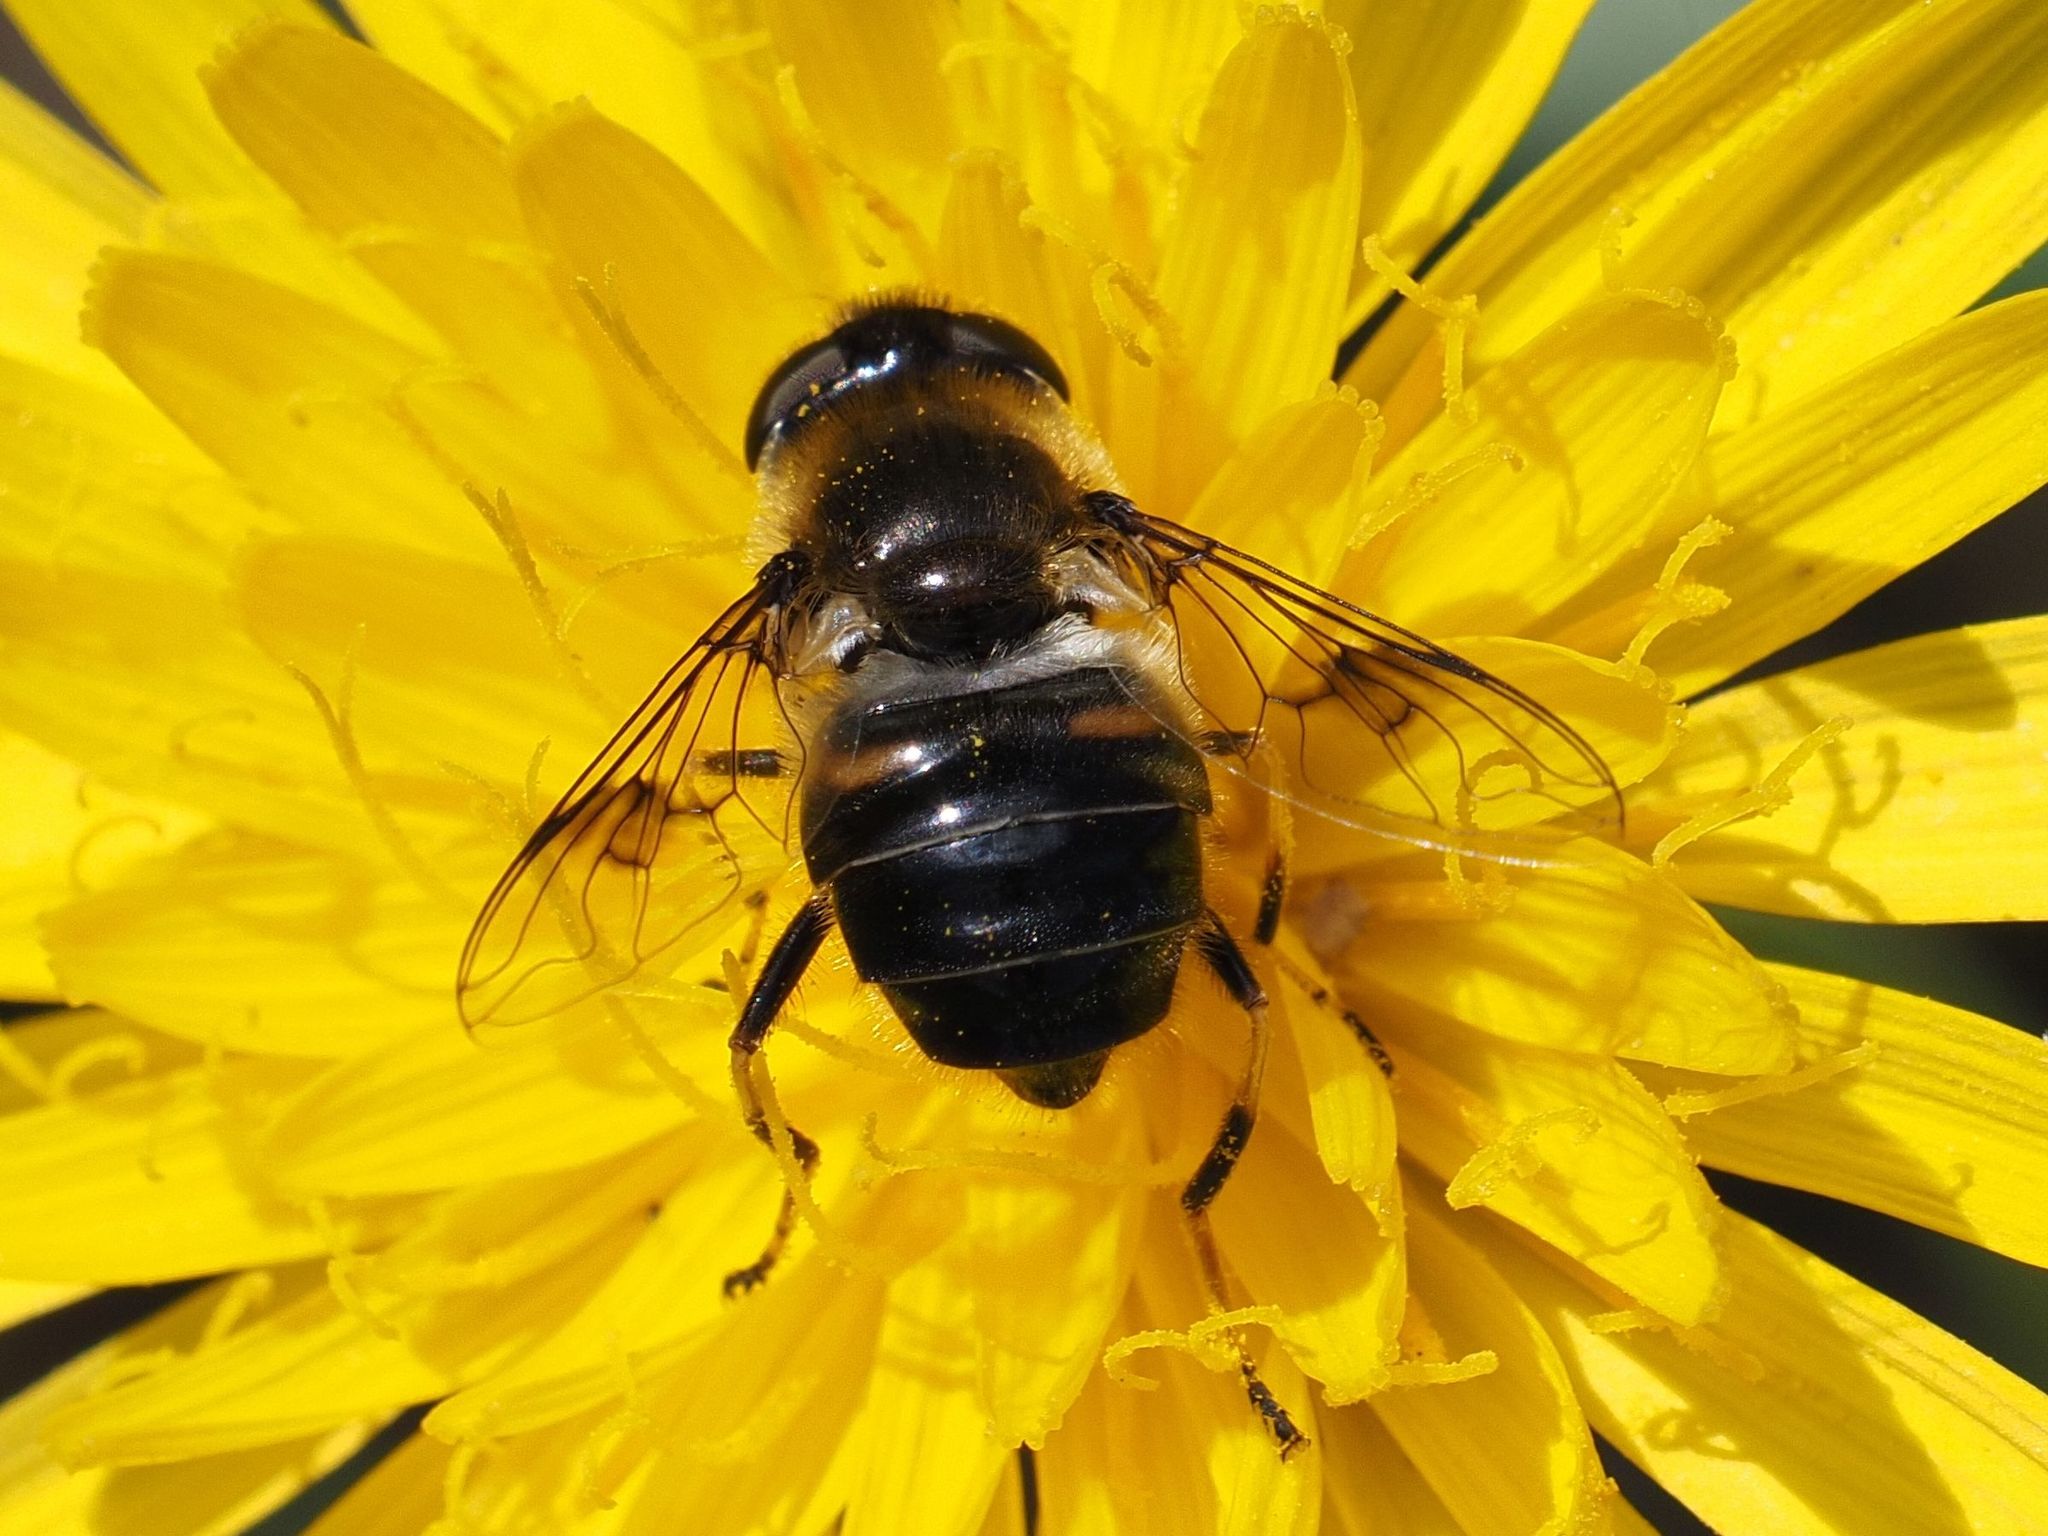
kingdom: Animalia
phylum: Arthropoda
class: Insecta
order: Diptera
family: Syrphidae
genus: Eristalis
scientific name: Eristalis rupium
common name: Hover fly
